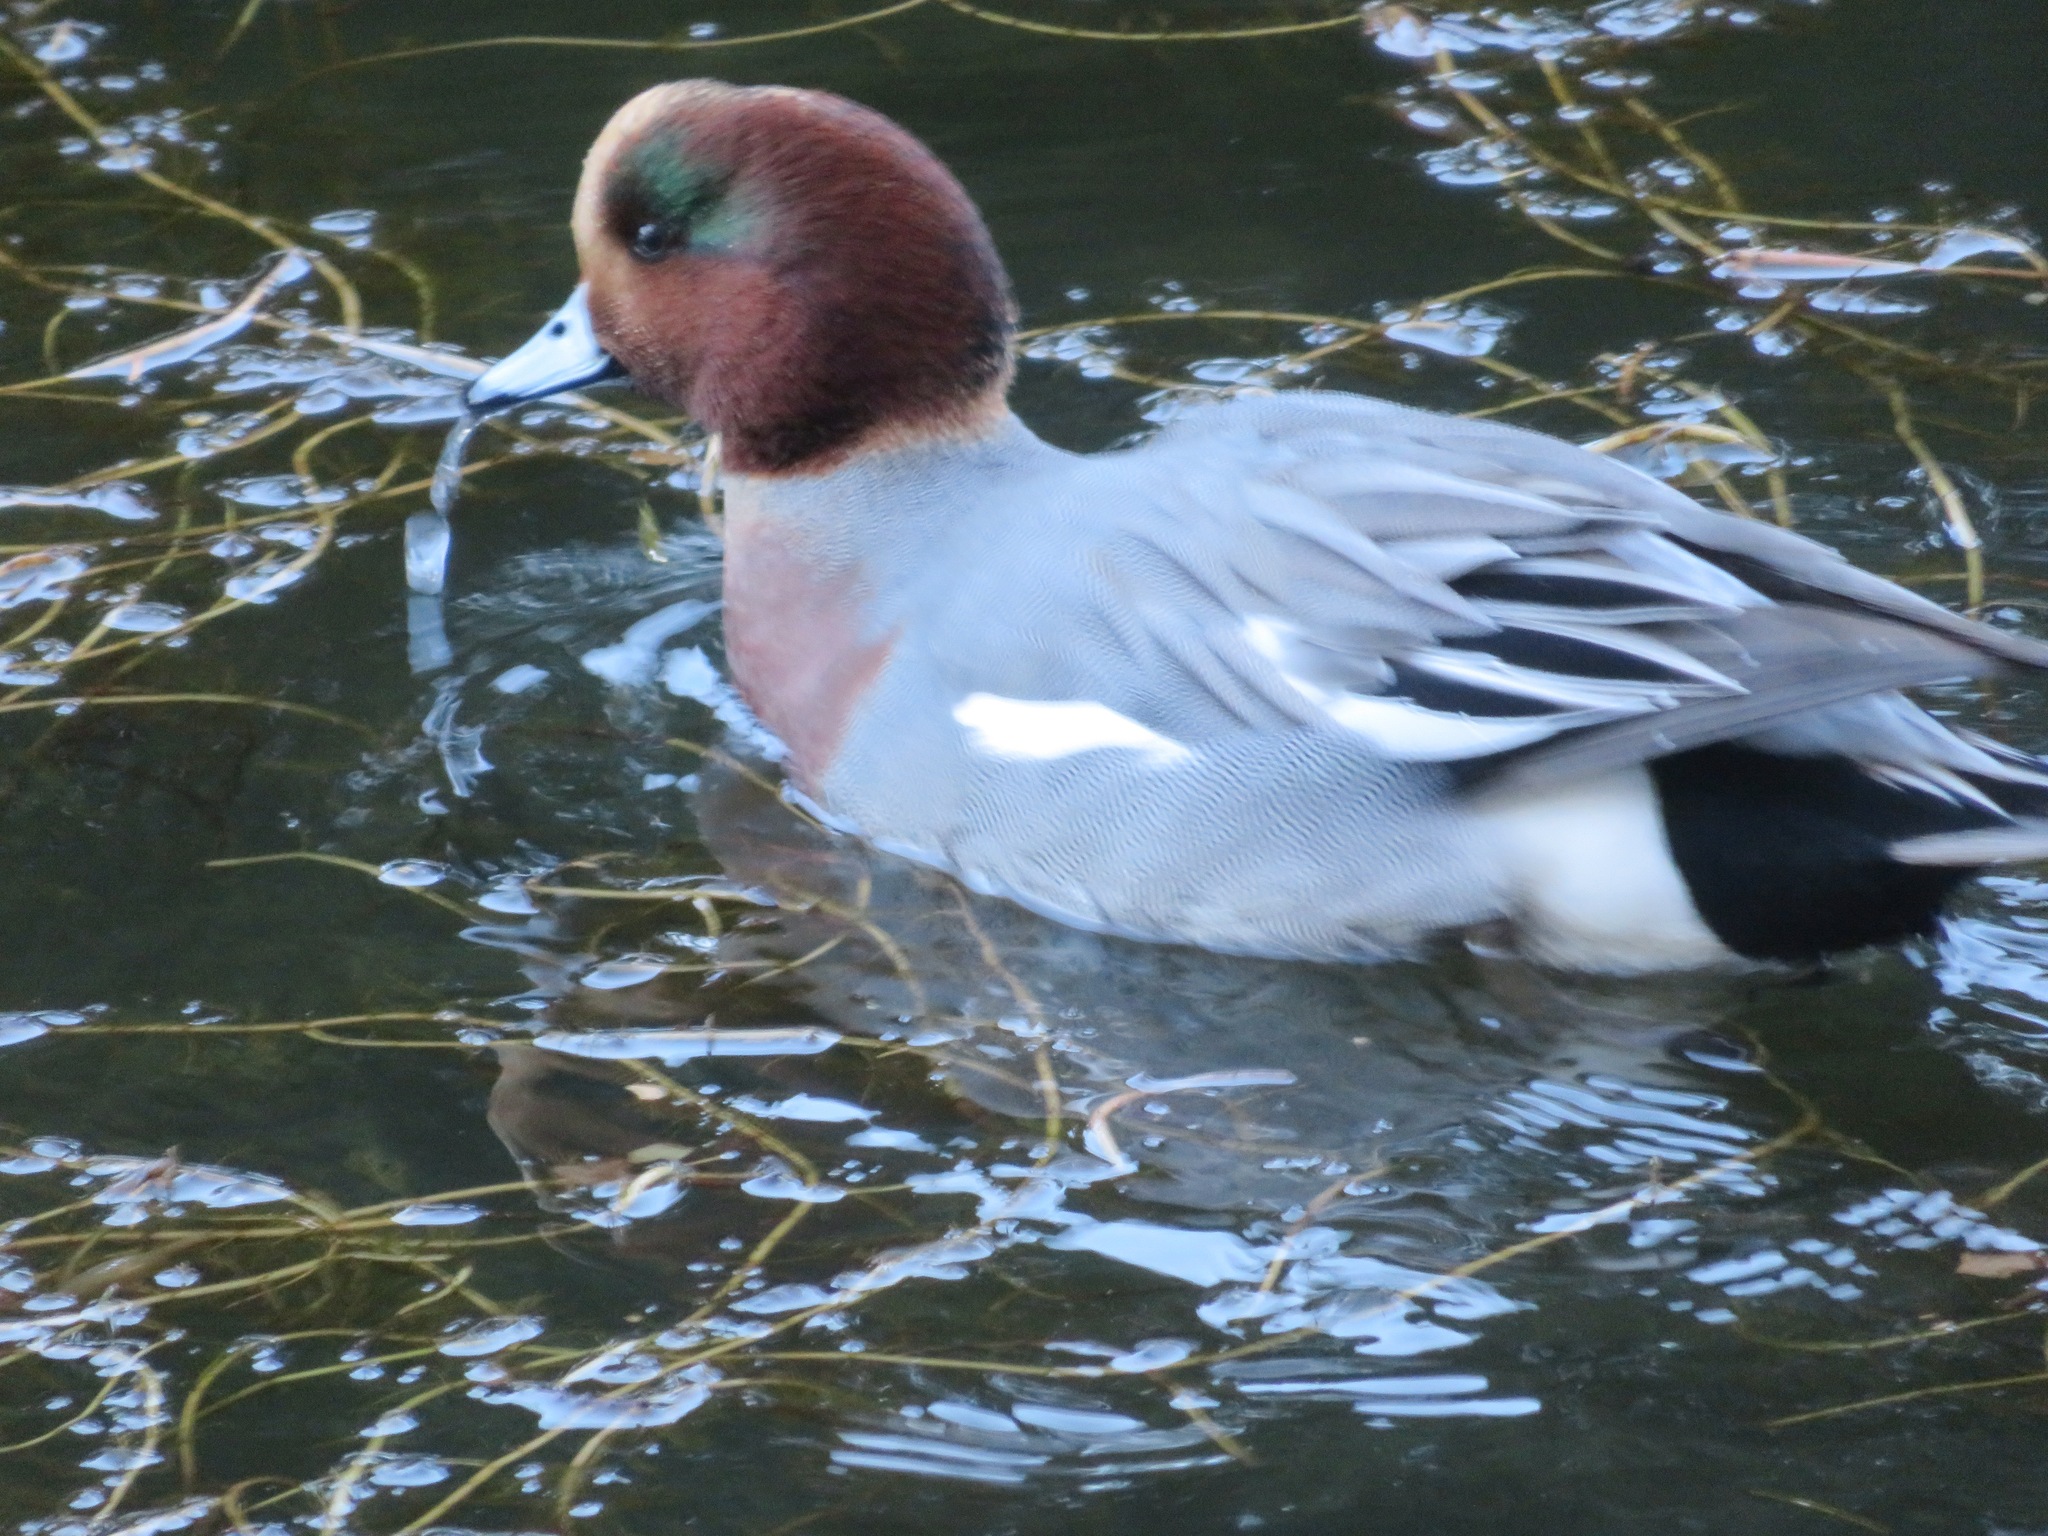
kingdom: Animalia
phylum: Chordata
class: Aves
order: Anseriformes
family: Anatidae
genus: Mareca
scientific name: Mareca penelope
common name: Eurasian wigeon
